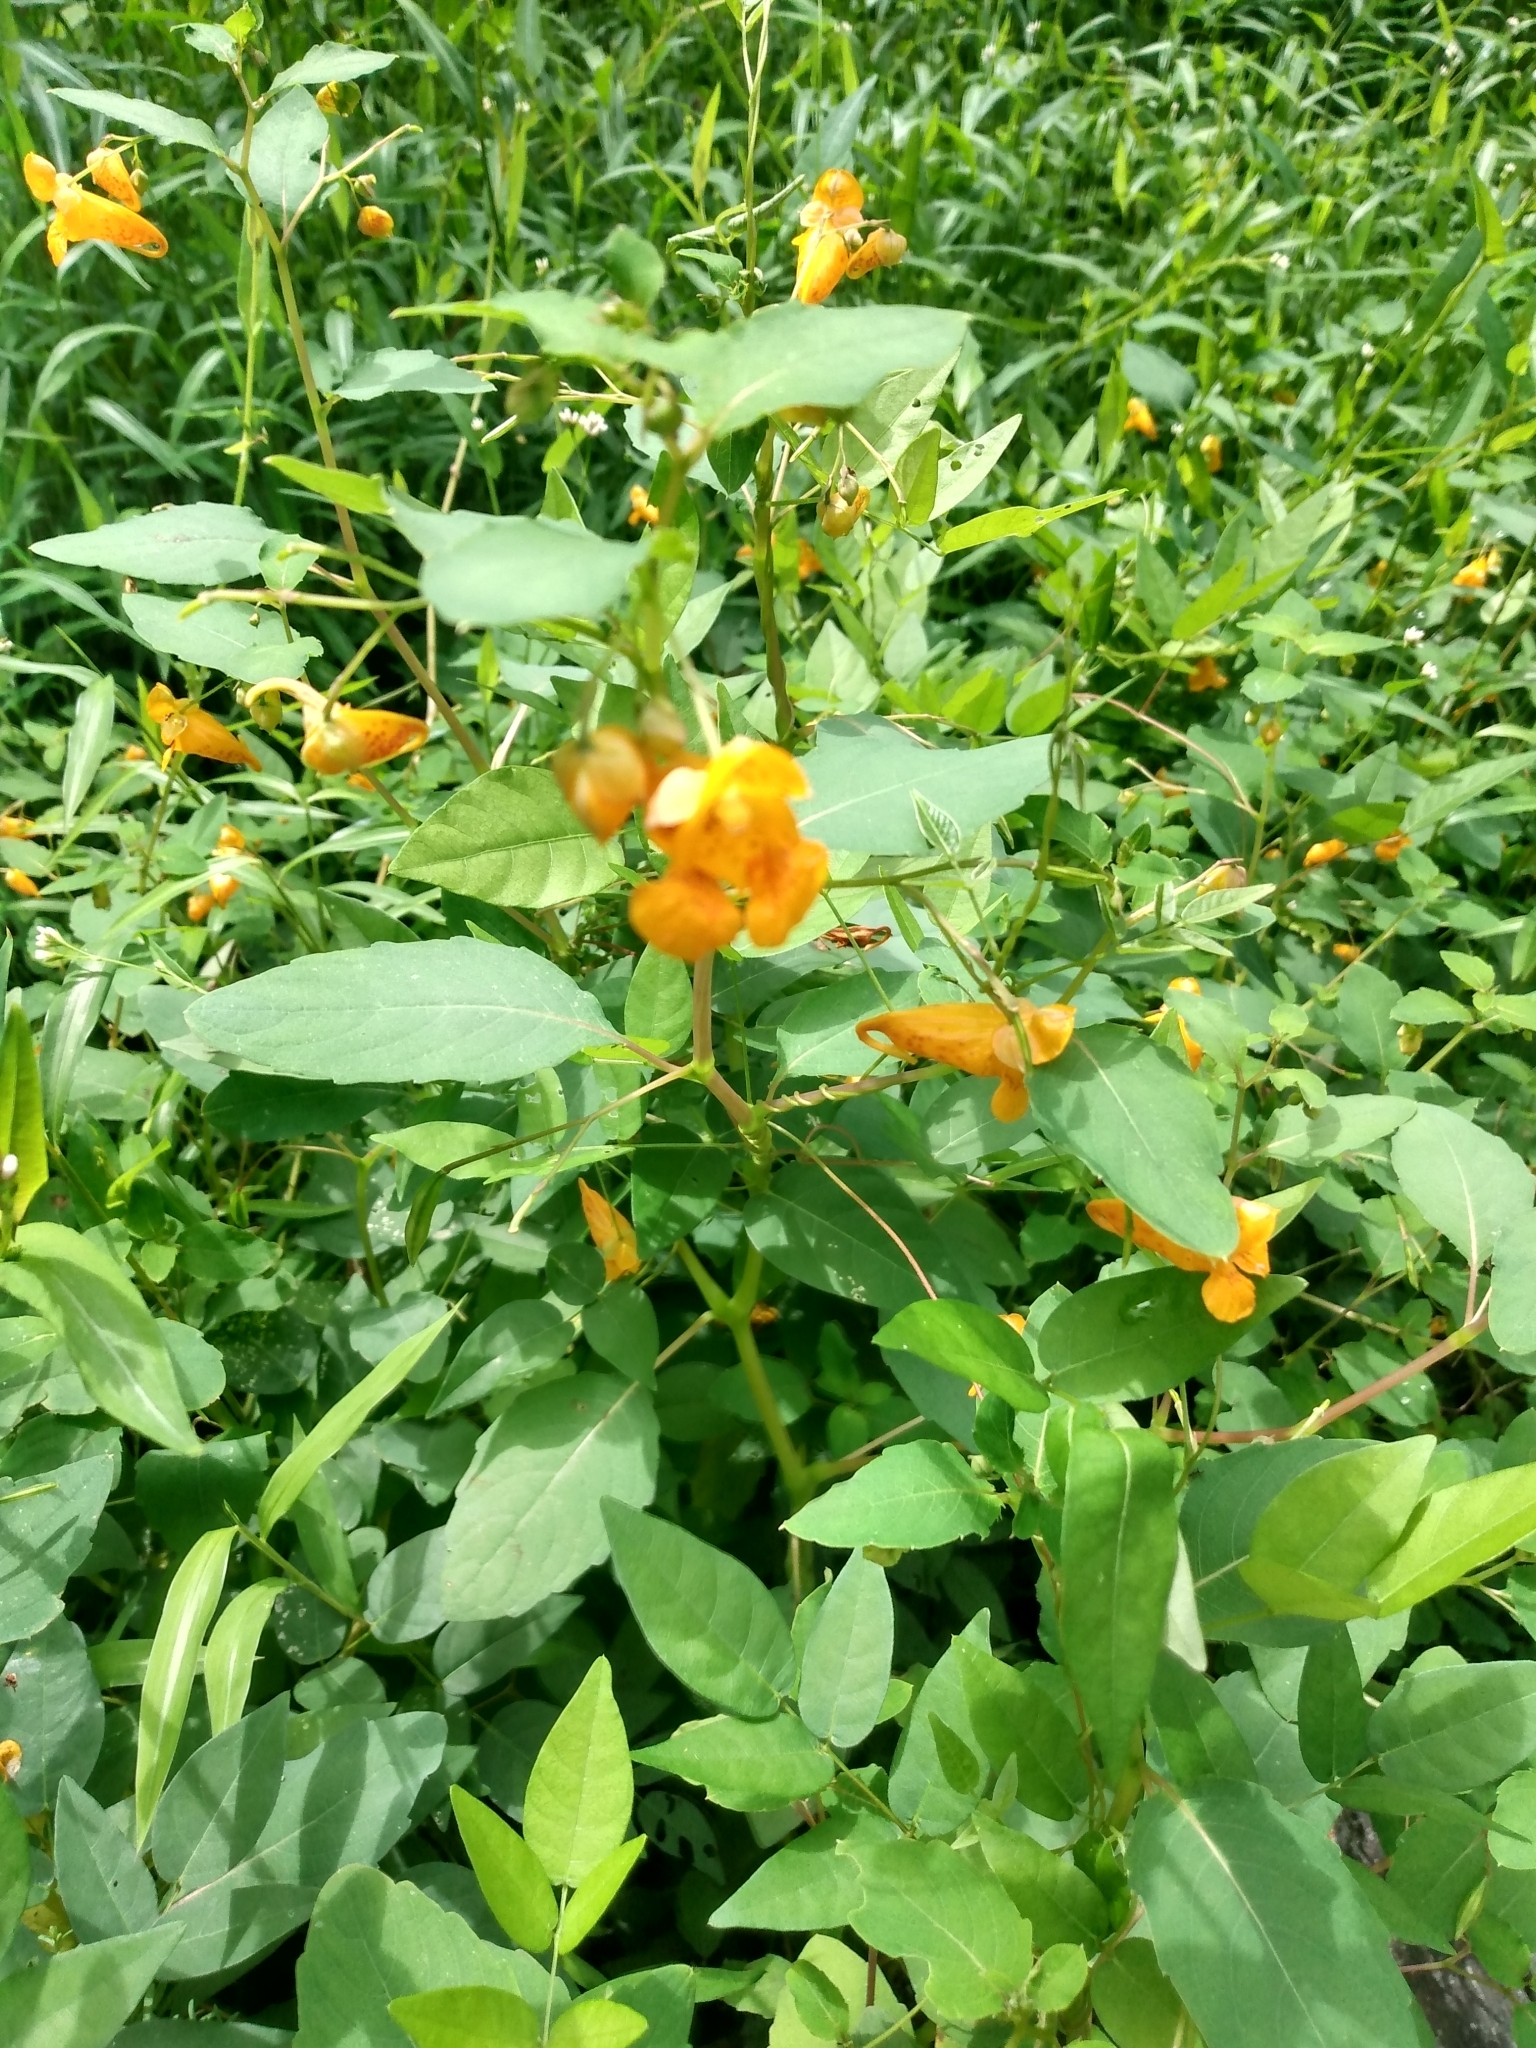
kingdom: Plantae
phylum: Tracheophyta
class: Magnoliopsida
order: Ericales
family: Balsaminaceae
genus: Impatiens
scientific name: Impatiens capensis
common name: Orange balsam
